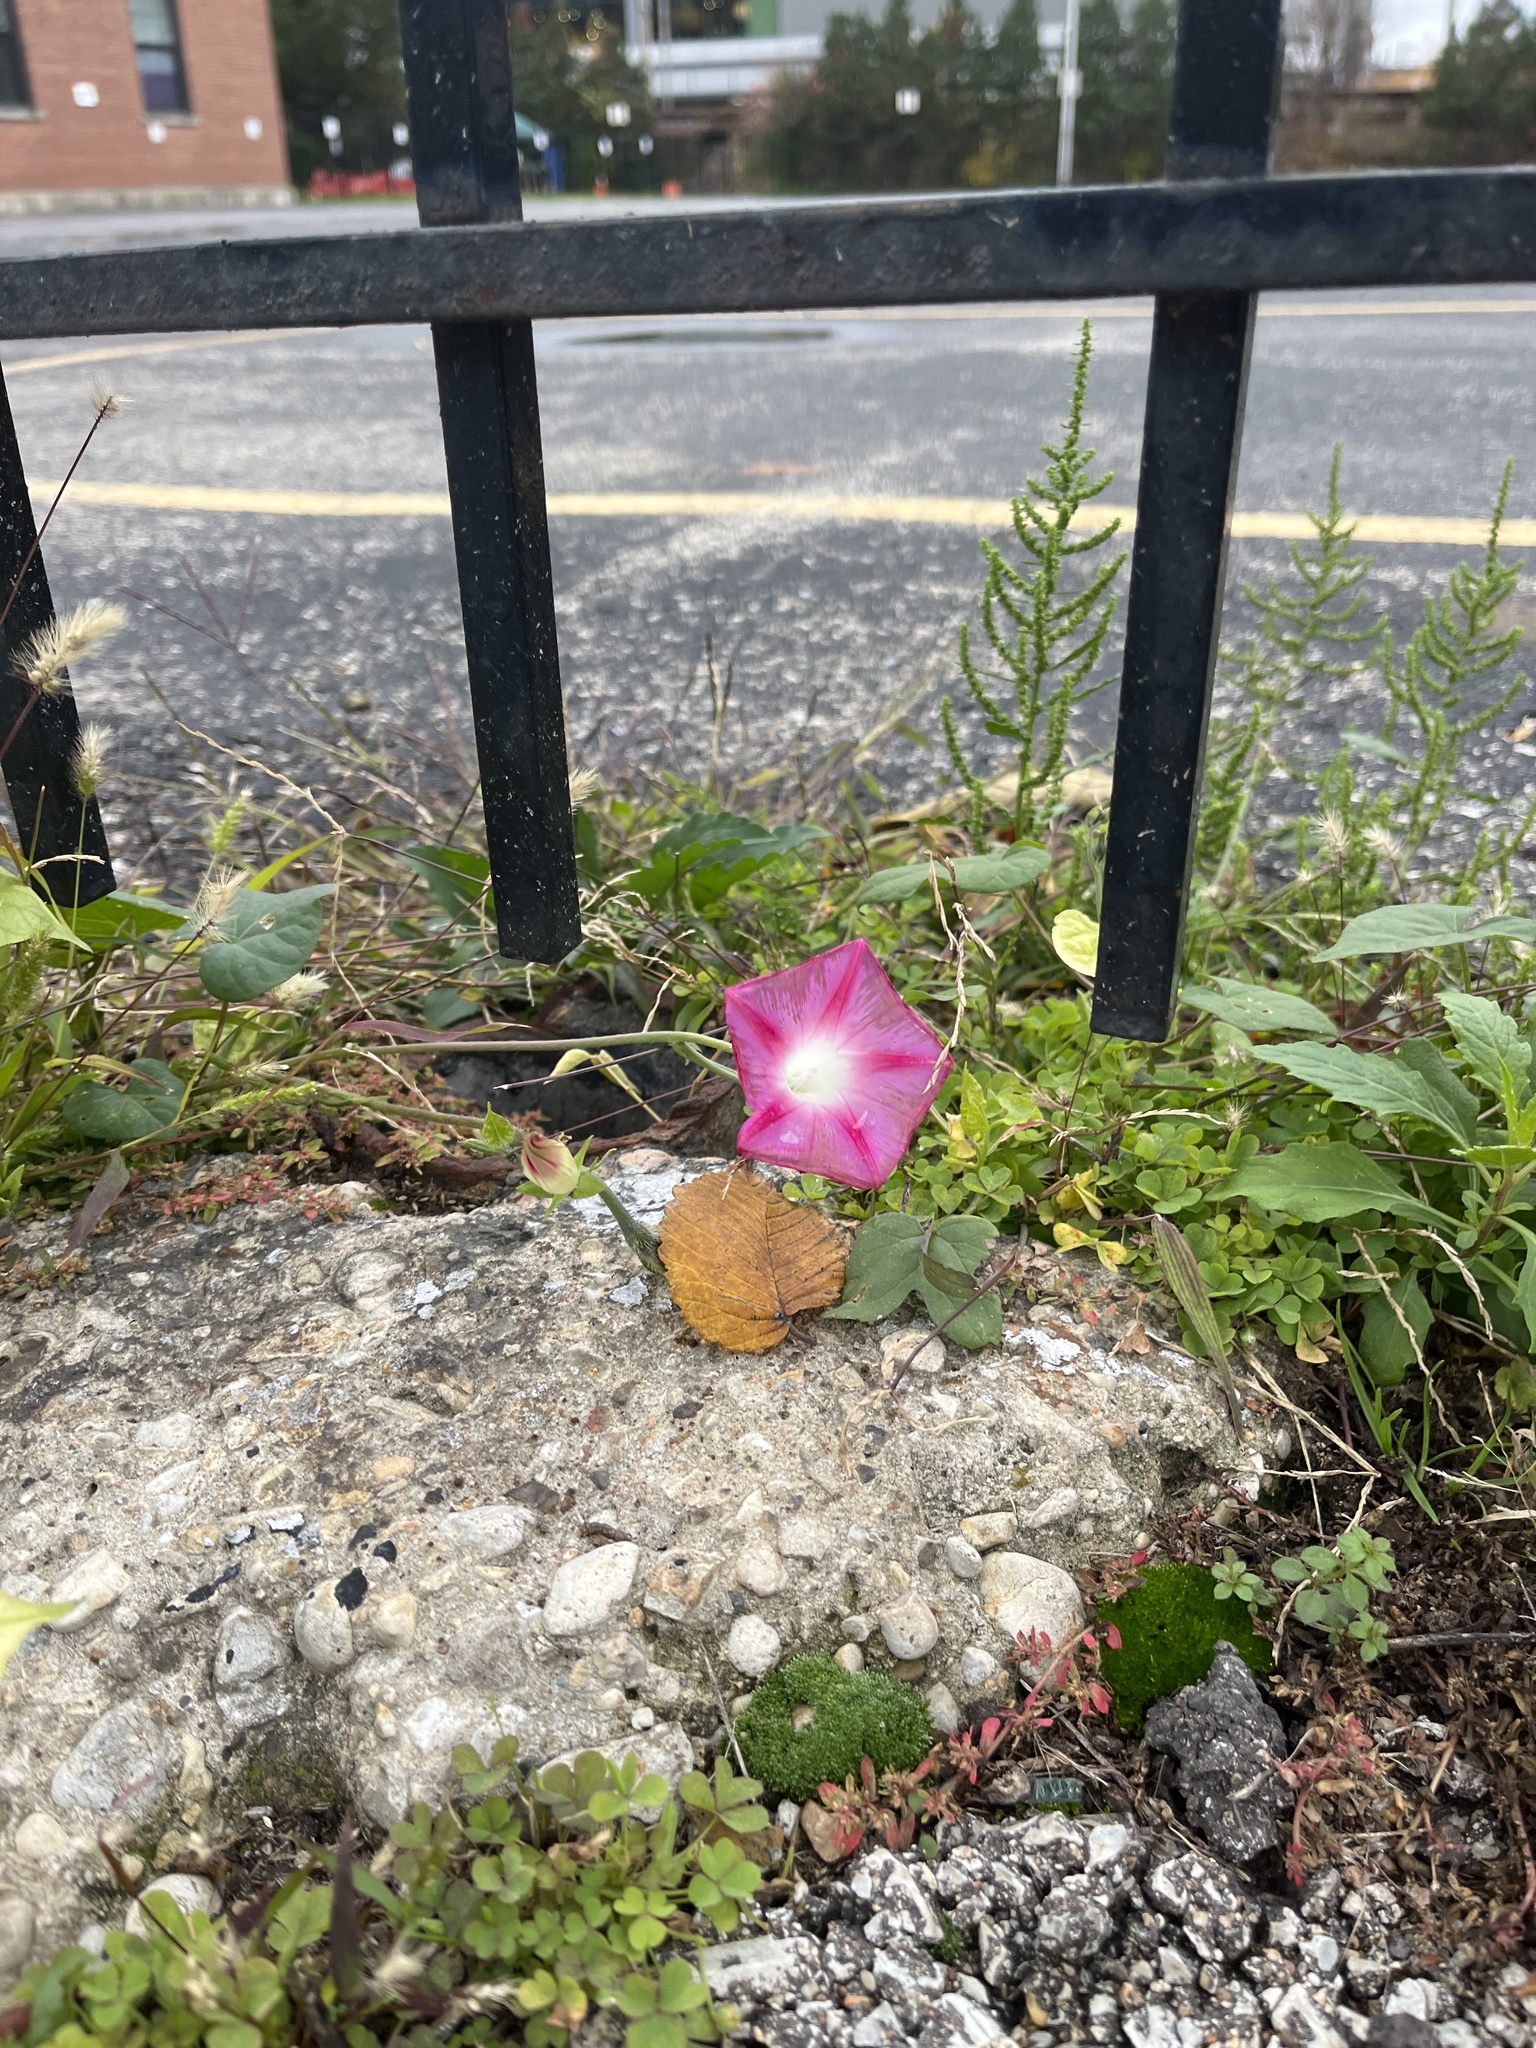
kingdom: Plantae
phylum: Tracheophyta
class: Magnoliopsida
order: Solanales
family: Convolvulaceae
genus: Ipomoea
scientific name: Ipomoea purpurea
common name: Common morning-glory
